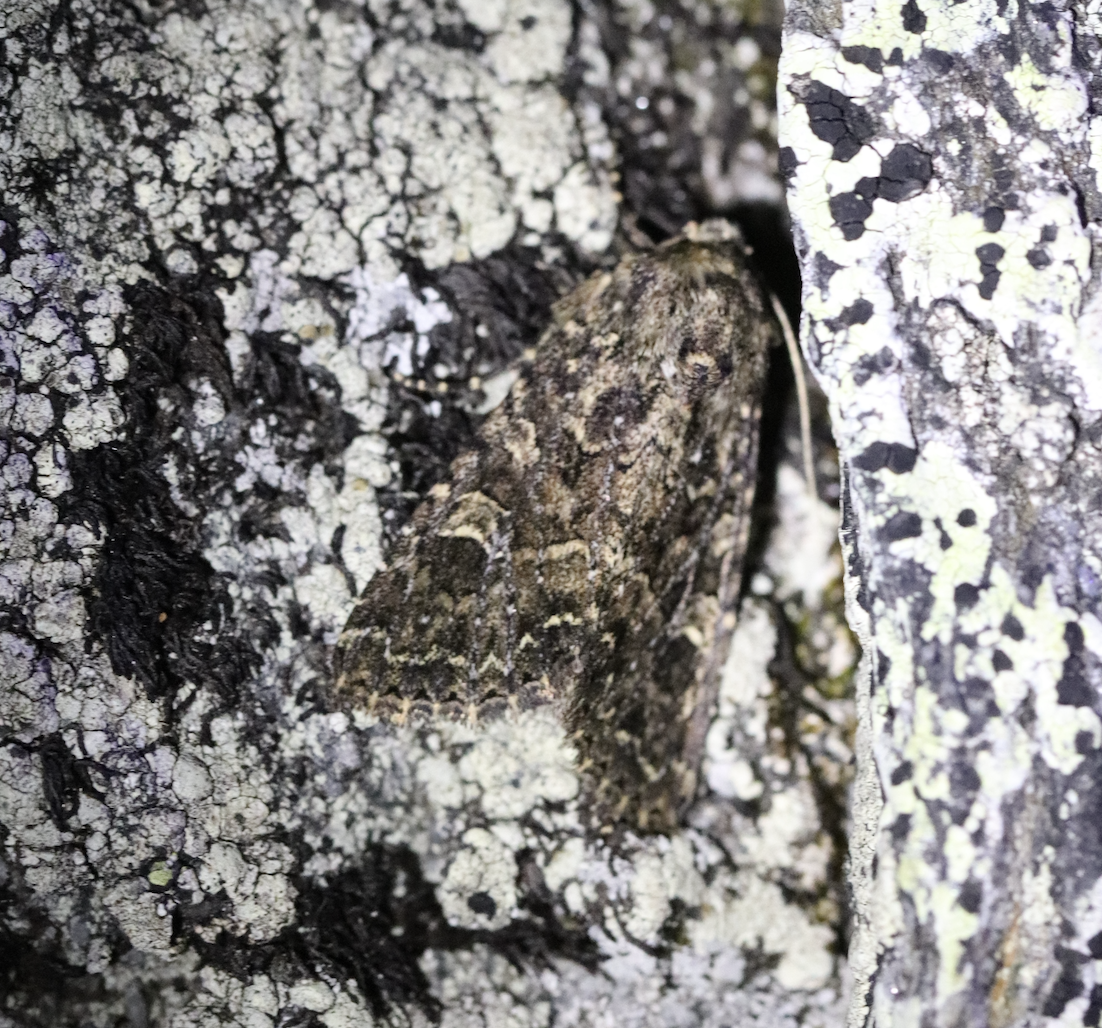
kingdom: Animalia
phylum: Arthropoda
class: Insecta
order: Lepidoptera
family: Noctuidae
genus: Apamea
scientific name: Apamea furva
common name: Confused
